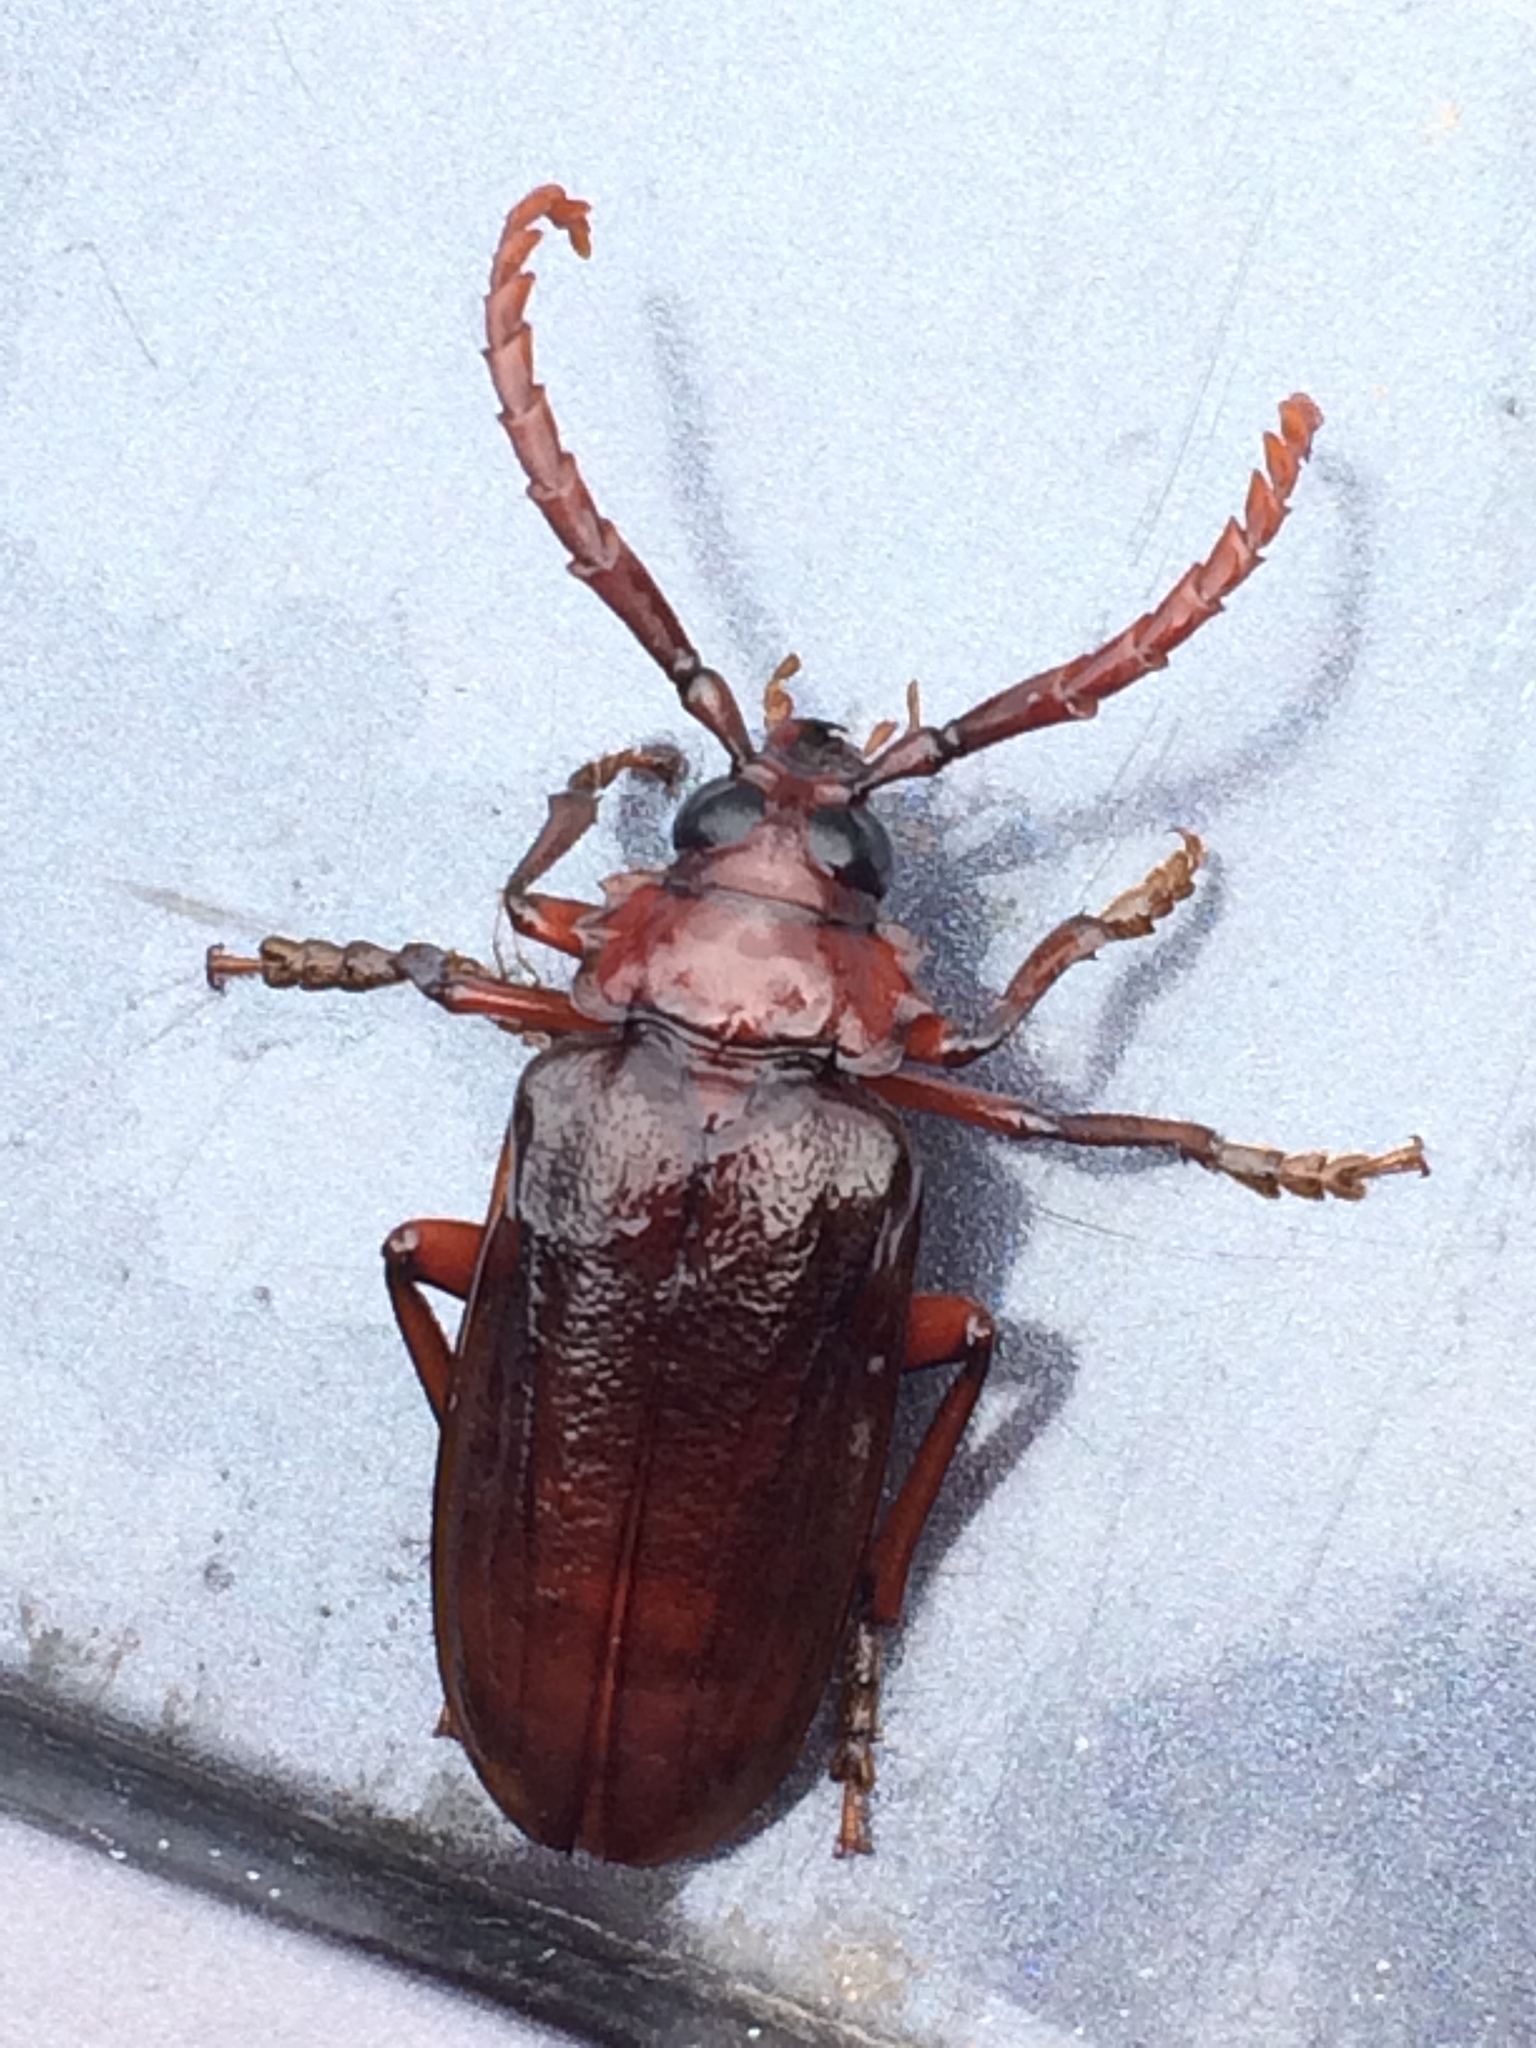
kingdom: Animalia
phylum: Arthropoda
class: Insecta
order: Coleoptera
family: Cerambycidae
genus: Prionus
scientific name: Prionus pocularis
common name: Tooth-necked longhorn beetle
